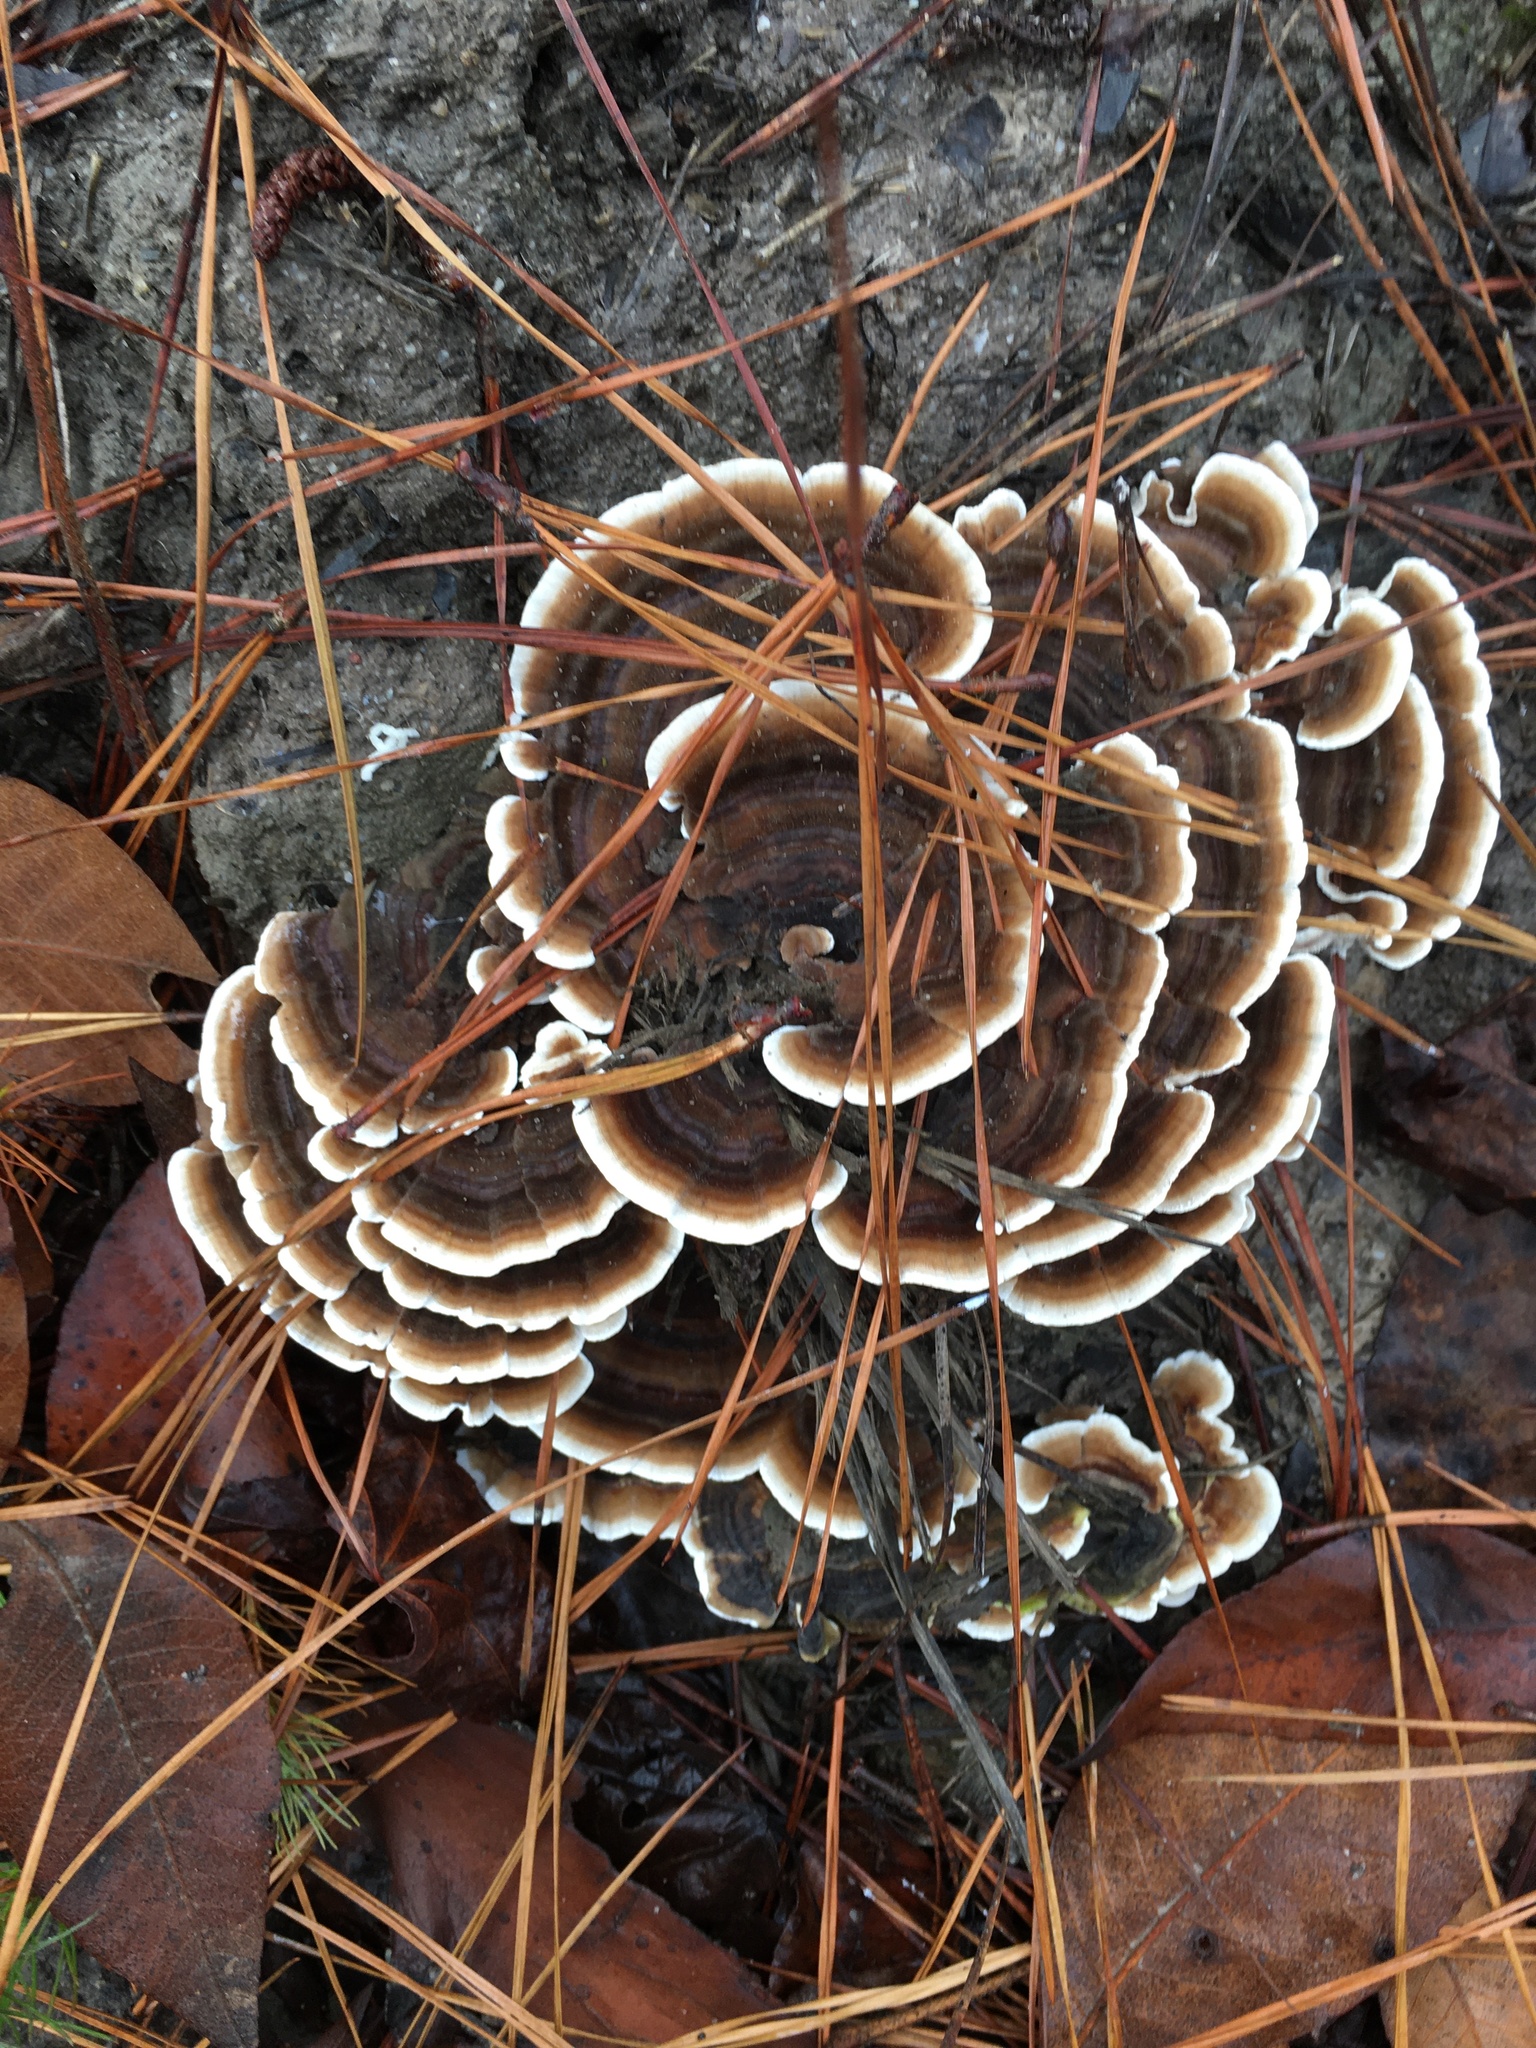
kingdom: Fungi
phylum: Basidiomycota
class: Agaricomycetes
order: Polyporales
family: Polyporaceae
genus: Trametes
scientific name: Trametes versicolor
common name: Turkeytail
